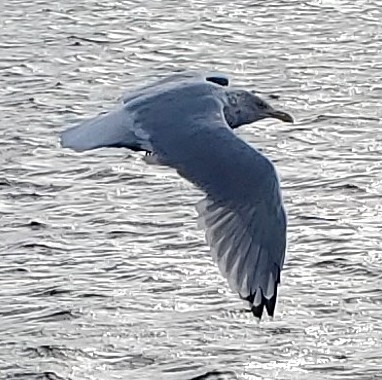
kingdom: Animalia
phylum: Chordata
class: Aves
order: Charadriiformes
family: Laridae
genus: Larus
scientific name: Larus argentatus
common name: Herring gull
